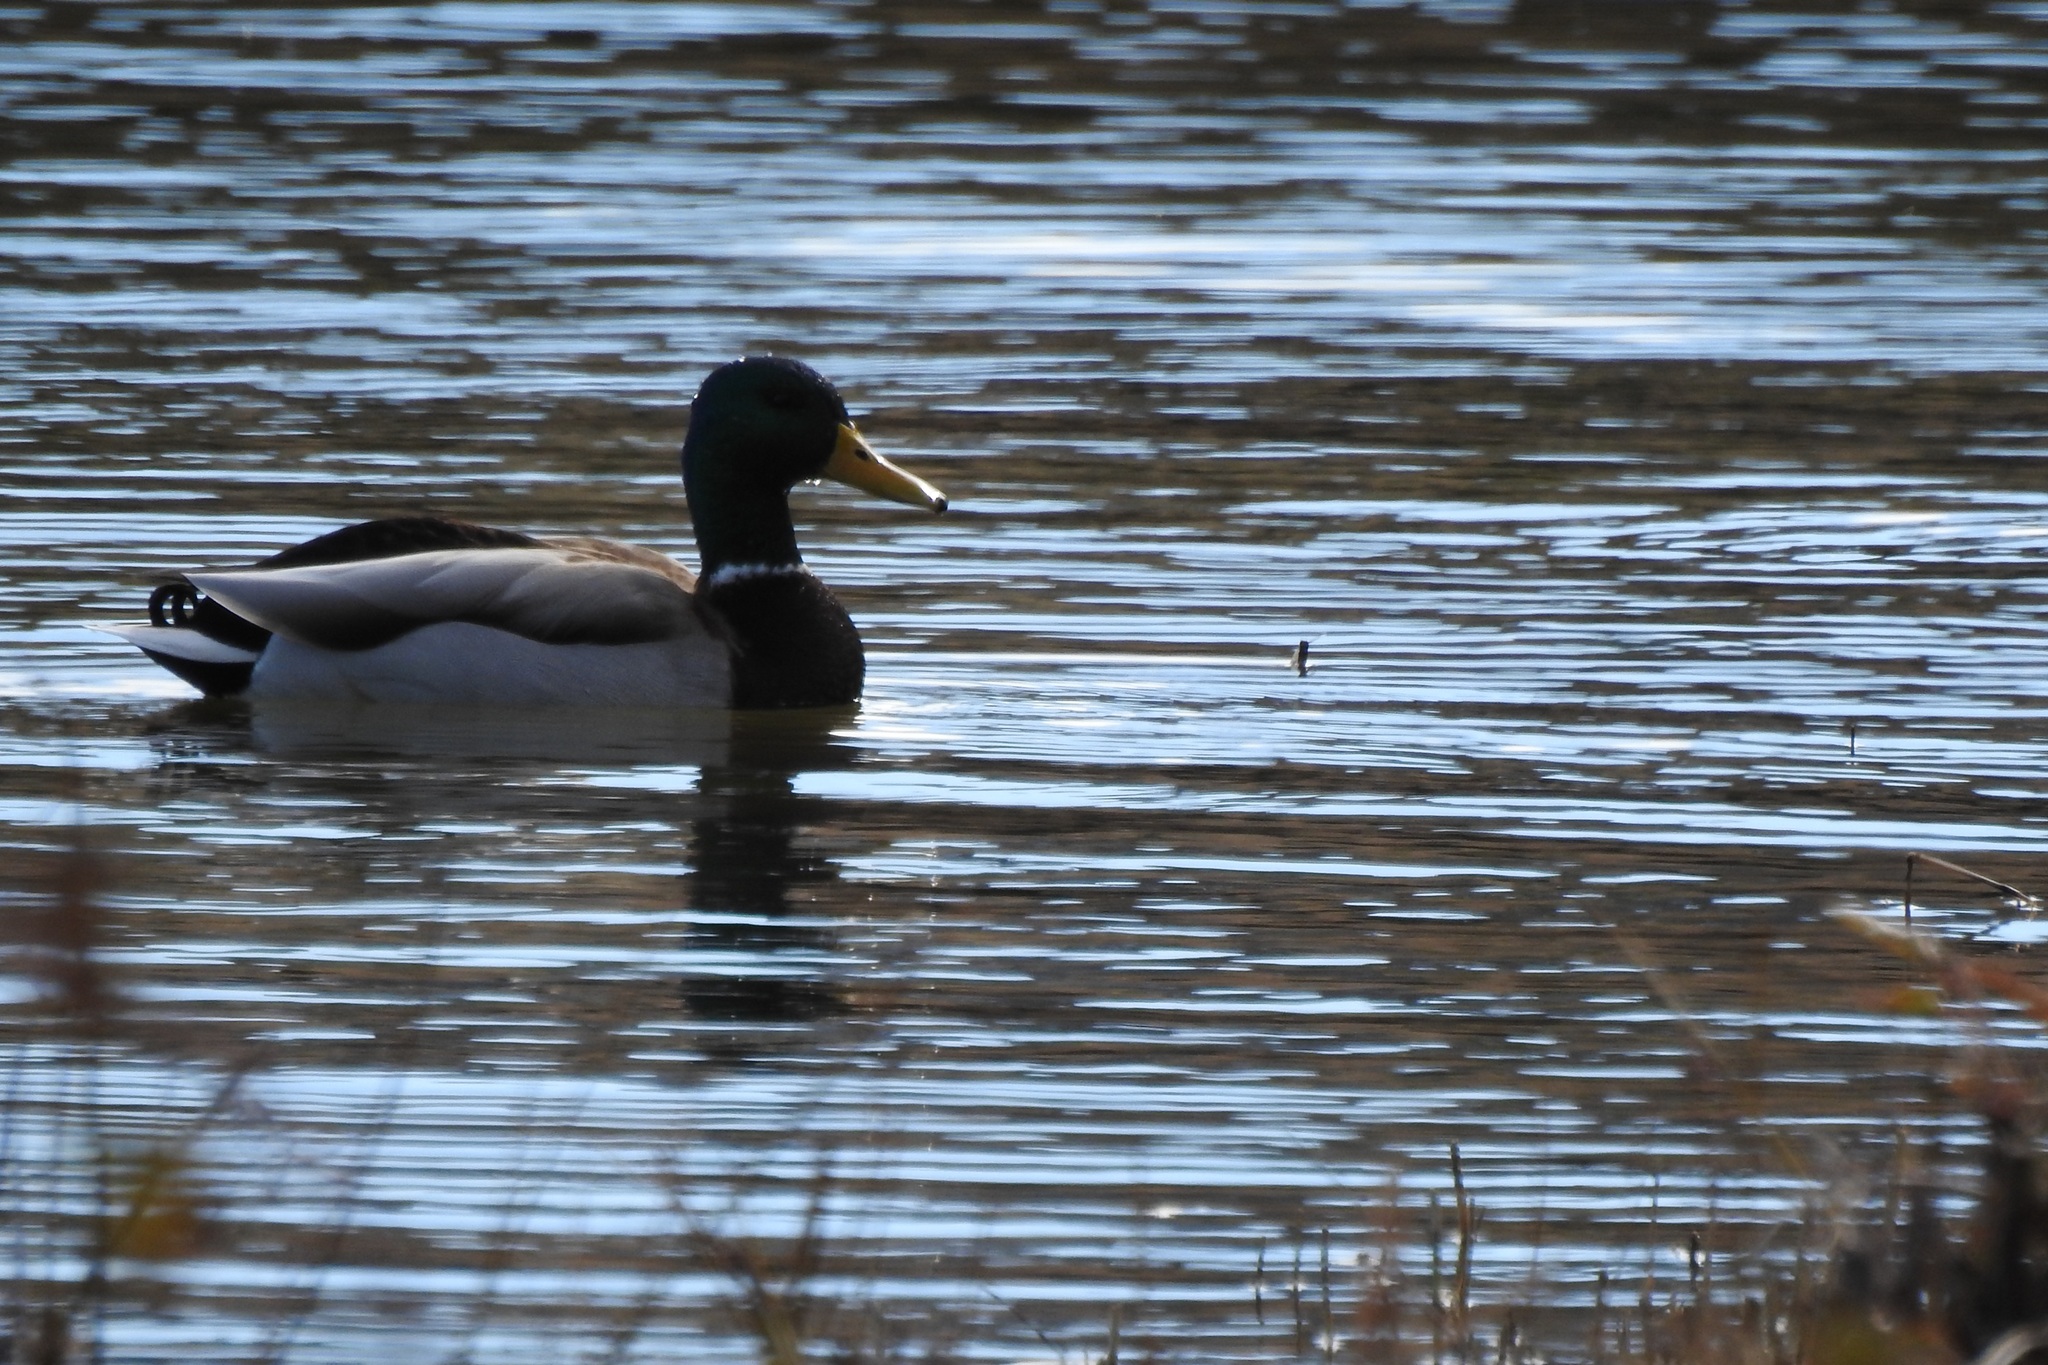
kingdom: Animalia
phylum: Chordata
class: Aves
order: Anseriformes
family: Anatidae
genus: Anas
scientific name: Anas platyrhynchos
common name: Mallard
